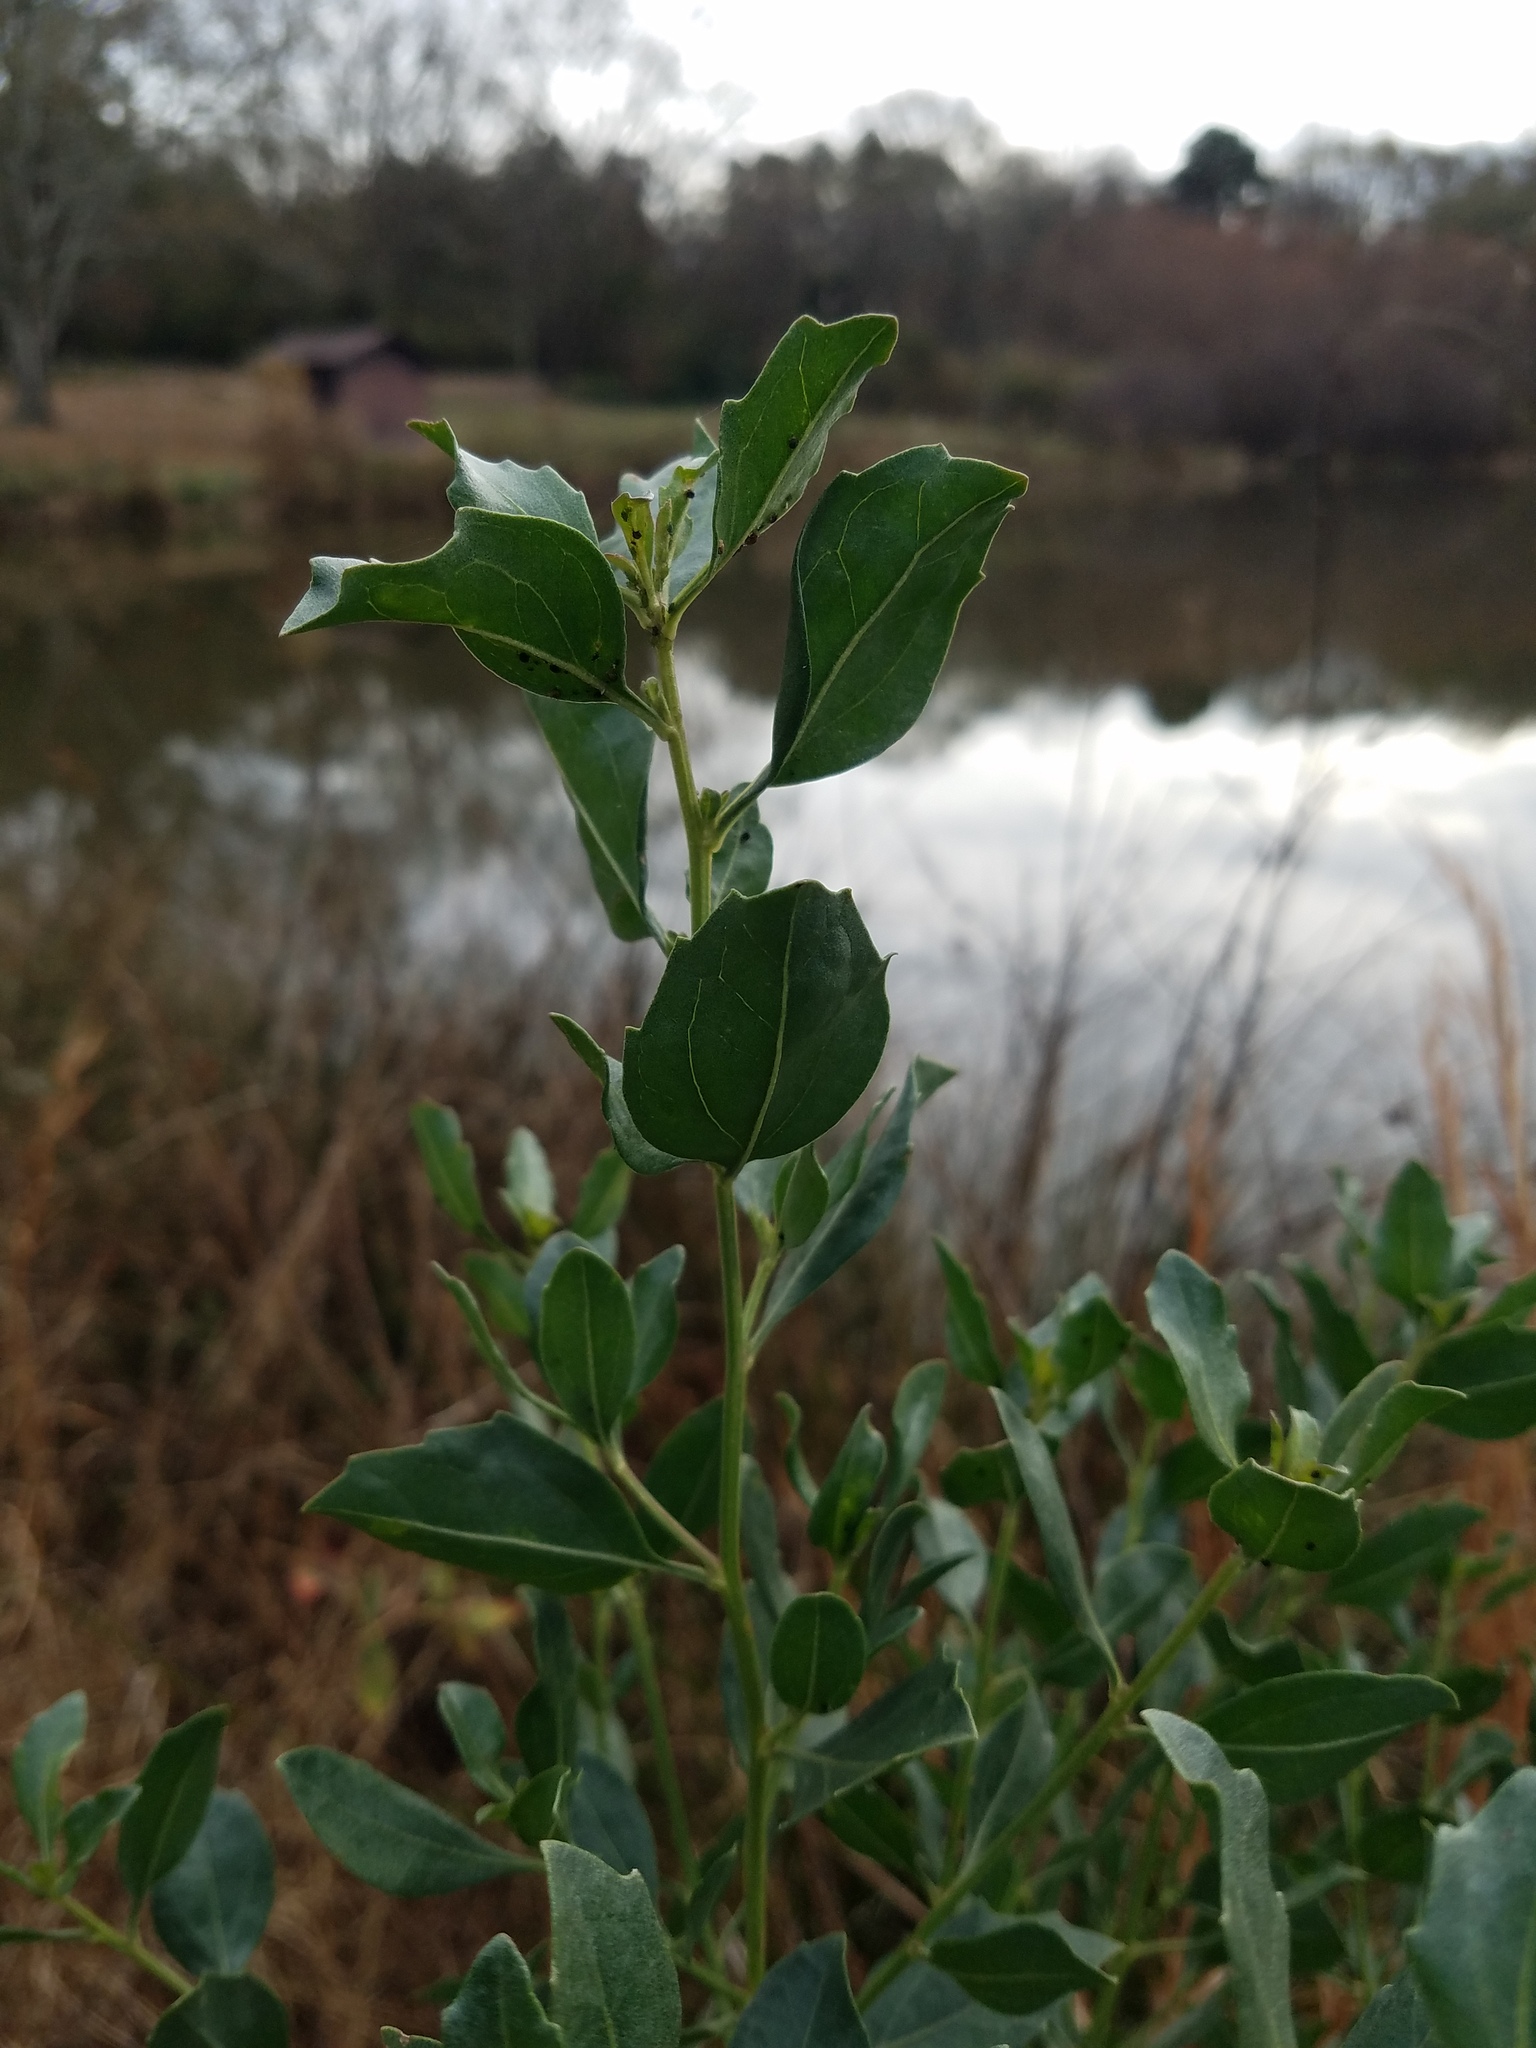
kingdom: Plantae
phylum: Tracheophyta
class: Magnoliopsida
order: Asterales
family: Asteraceae
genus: Baccharis
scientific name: Baccharis halimifolia
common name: Eastern baccharis
